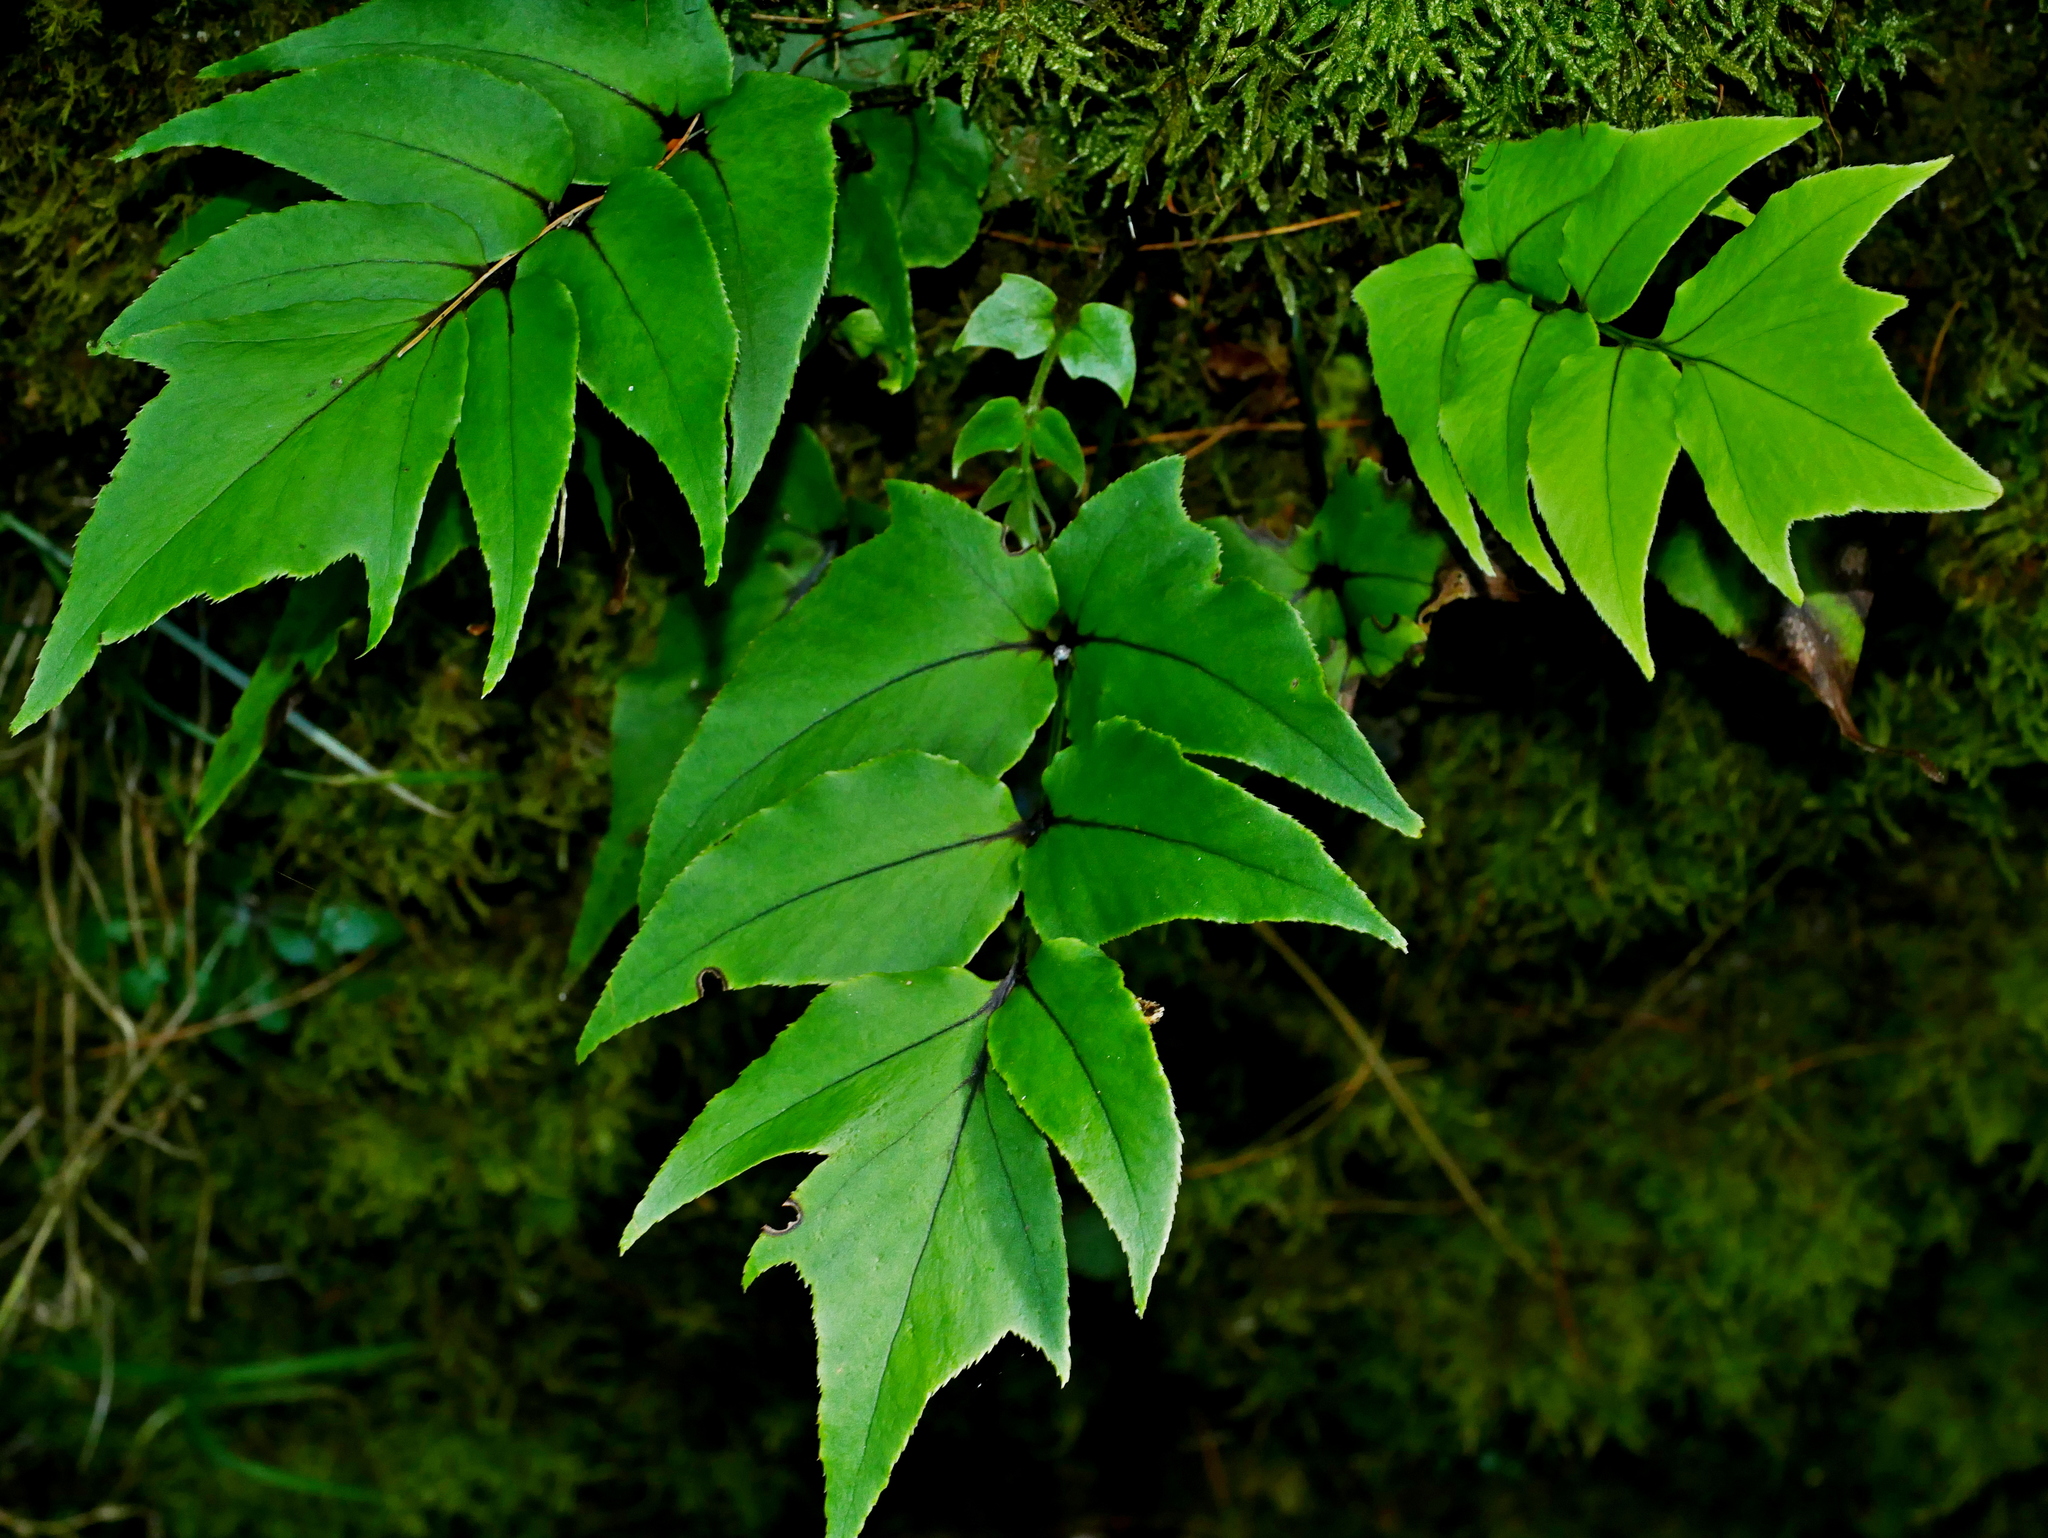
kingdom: Plantae
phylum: Tracheophyta
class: Polypodiopsida
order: Polypodiales
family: Dryopteridaceae
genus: Cyrtomium
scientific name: Cyrtomium caryotideum
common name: Asiatic holly fern
